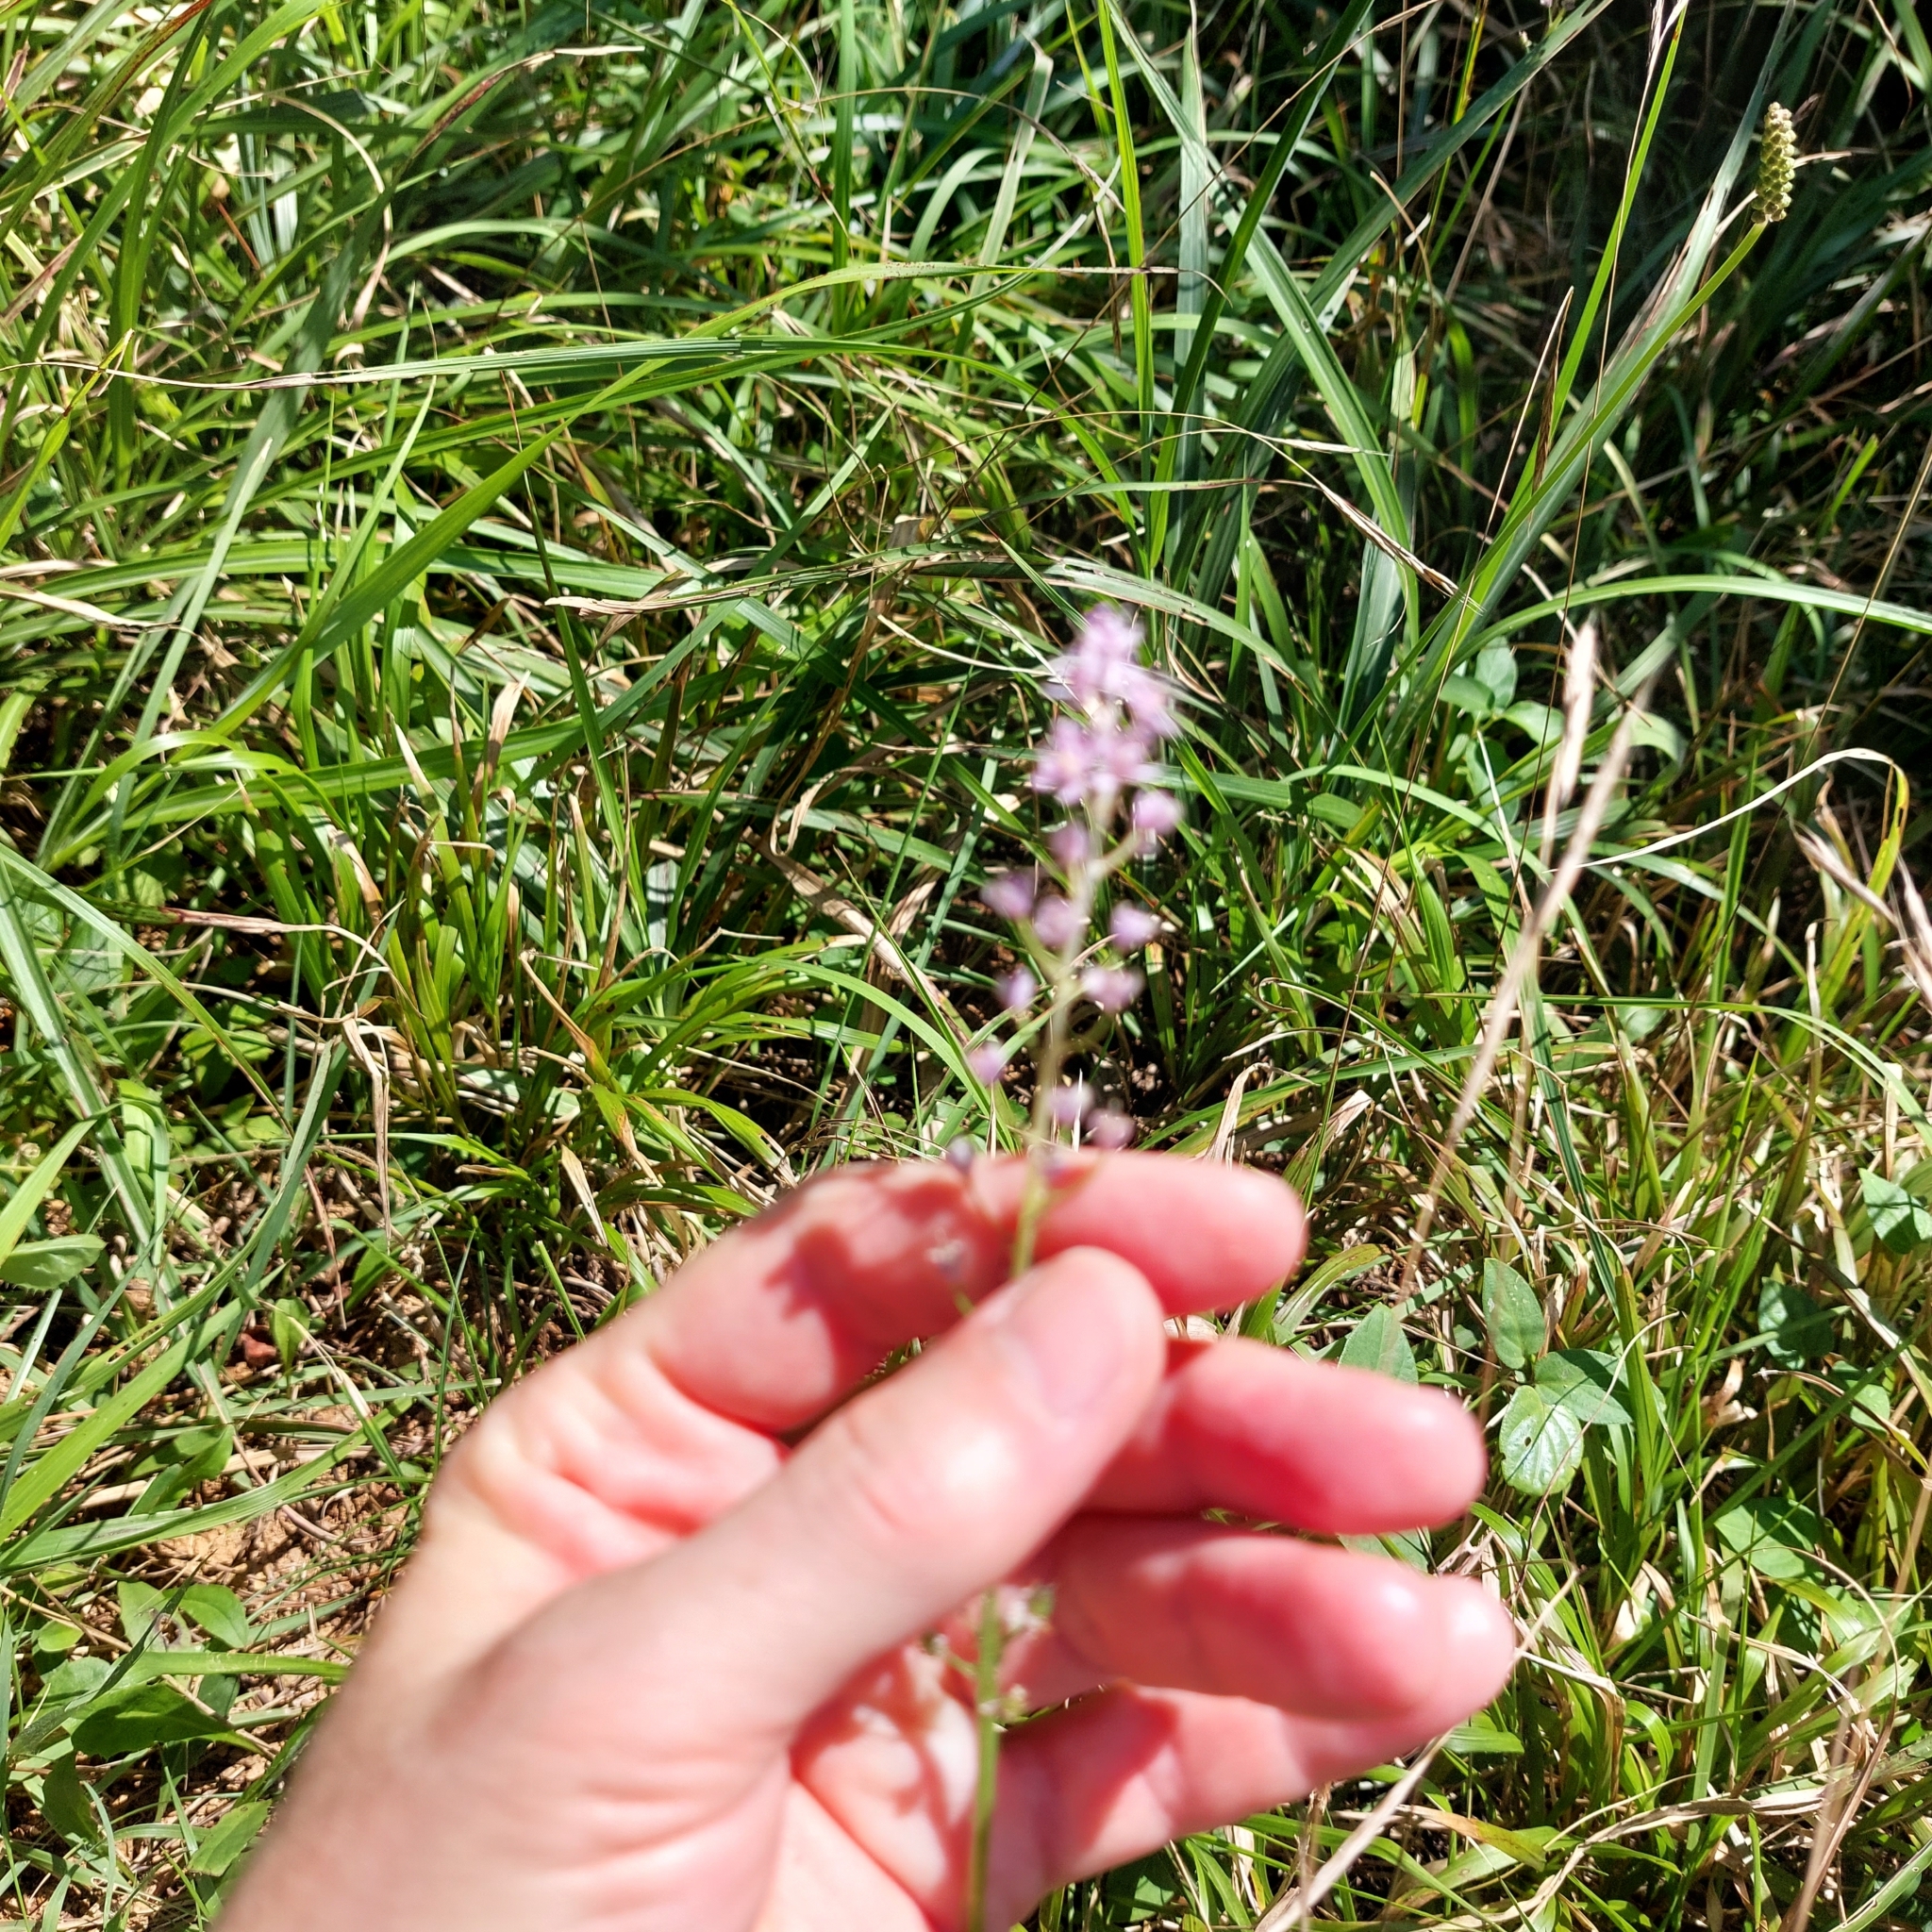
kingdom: Plantae
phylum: Tracheophyta
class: Liliopsida
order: Asparagales
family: Asparagaceae
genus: Barnardia
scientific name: Barnardia japonica
